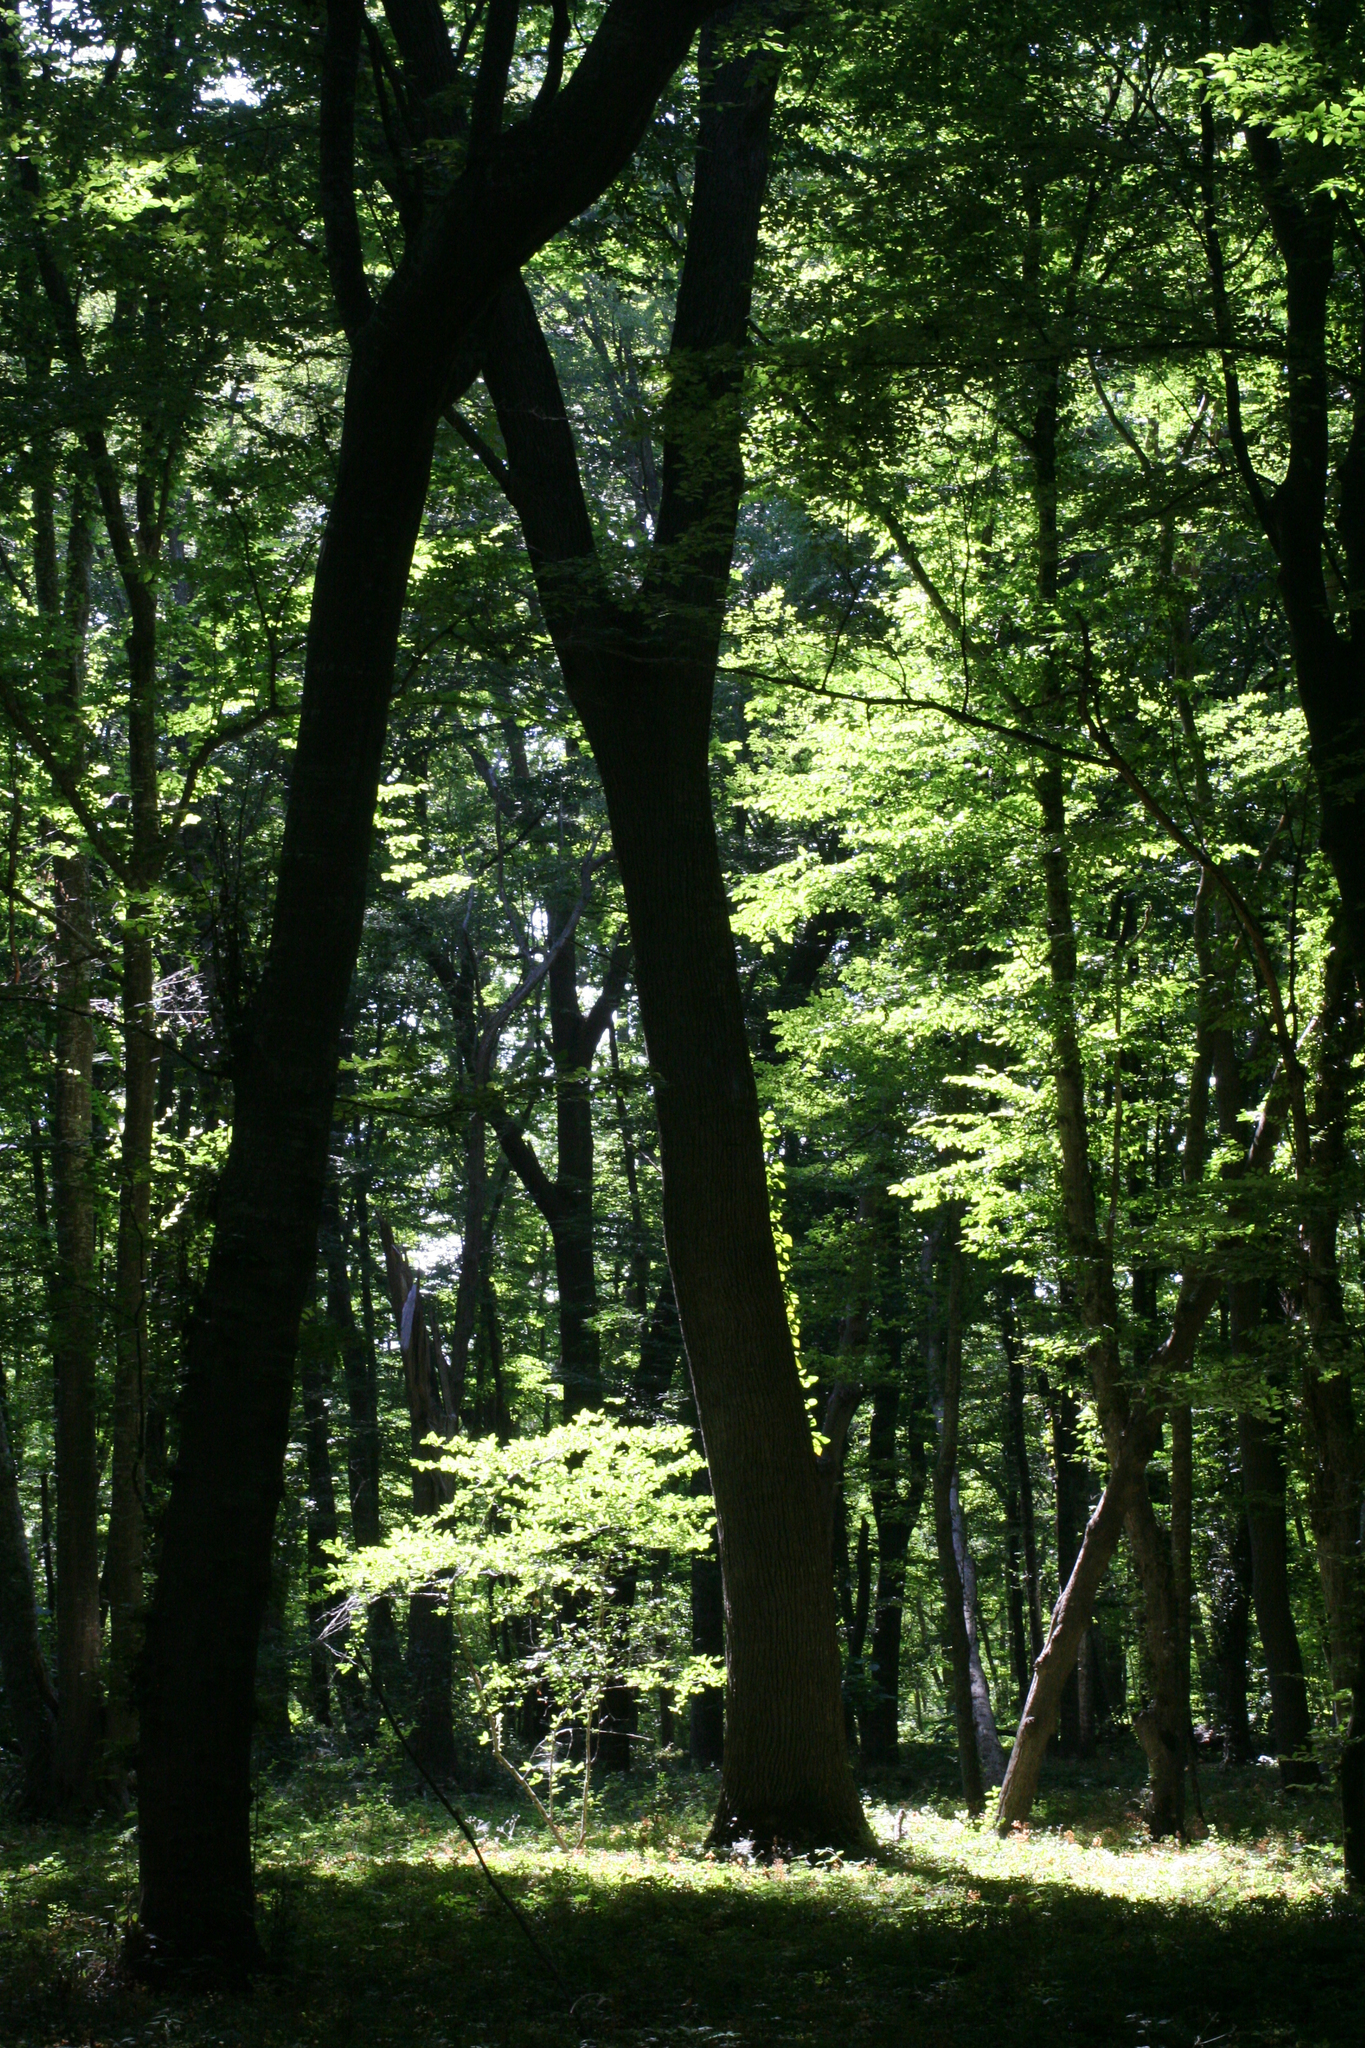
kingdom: Plantae
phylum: Tracheophyta
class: Magnoliopsida
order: Fagales
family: Betulaceae
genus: Carpinus
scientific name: Carpinus betulus
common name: Hornbeam
